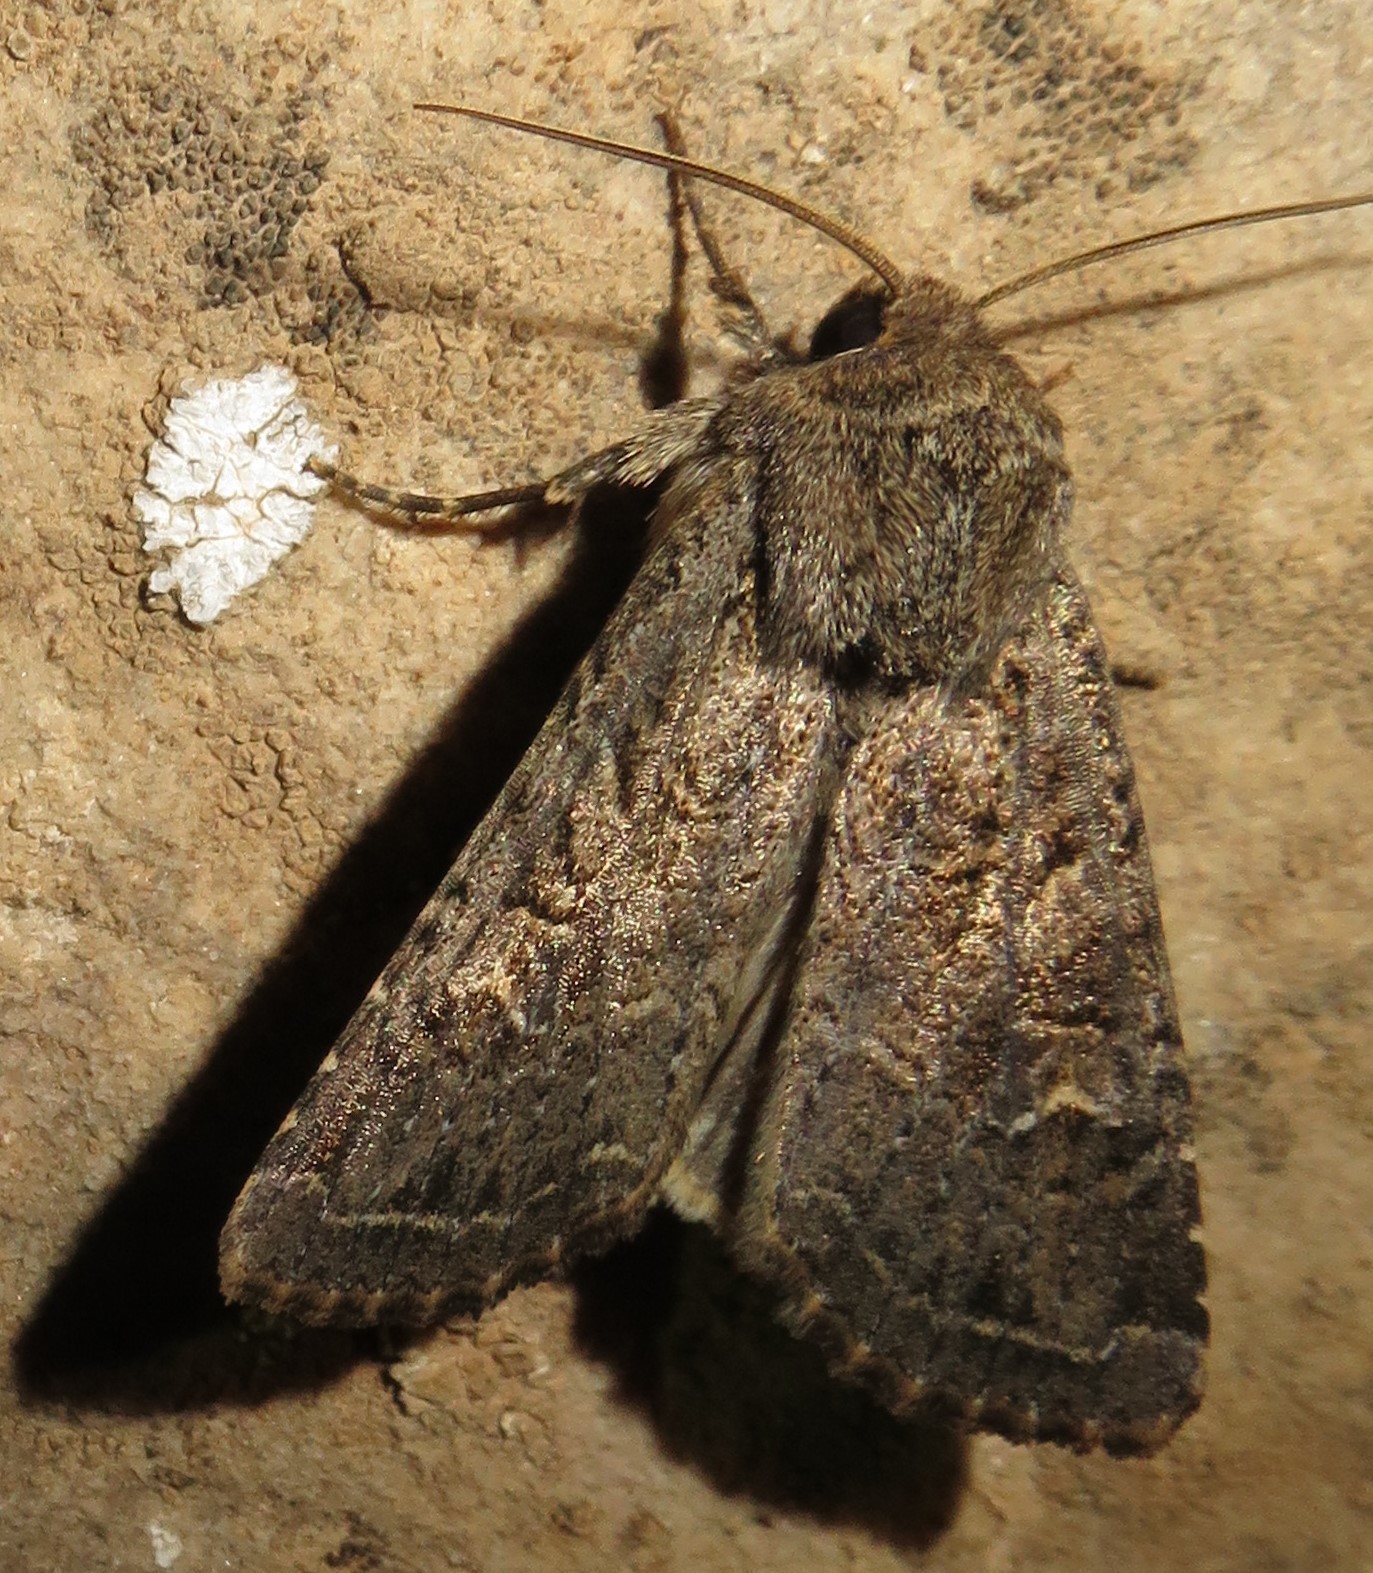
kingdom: Animalia
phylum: Arthropoda
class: Insecta
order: Lepidoptera
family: Noctuidae
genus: Apamea
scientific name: Apamea devastator
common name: Glassy cutworm
